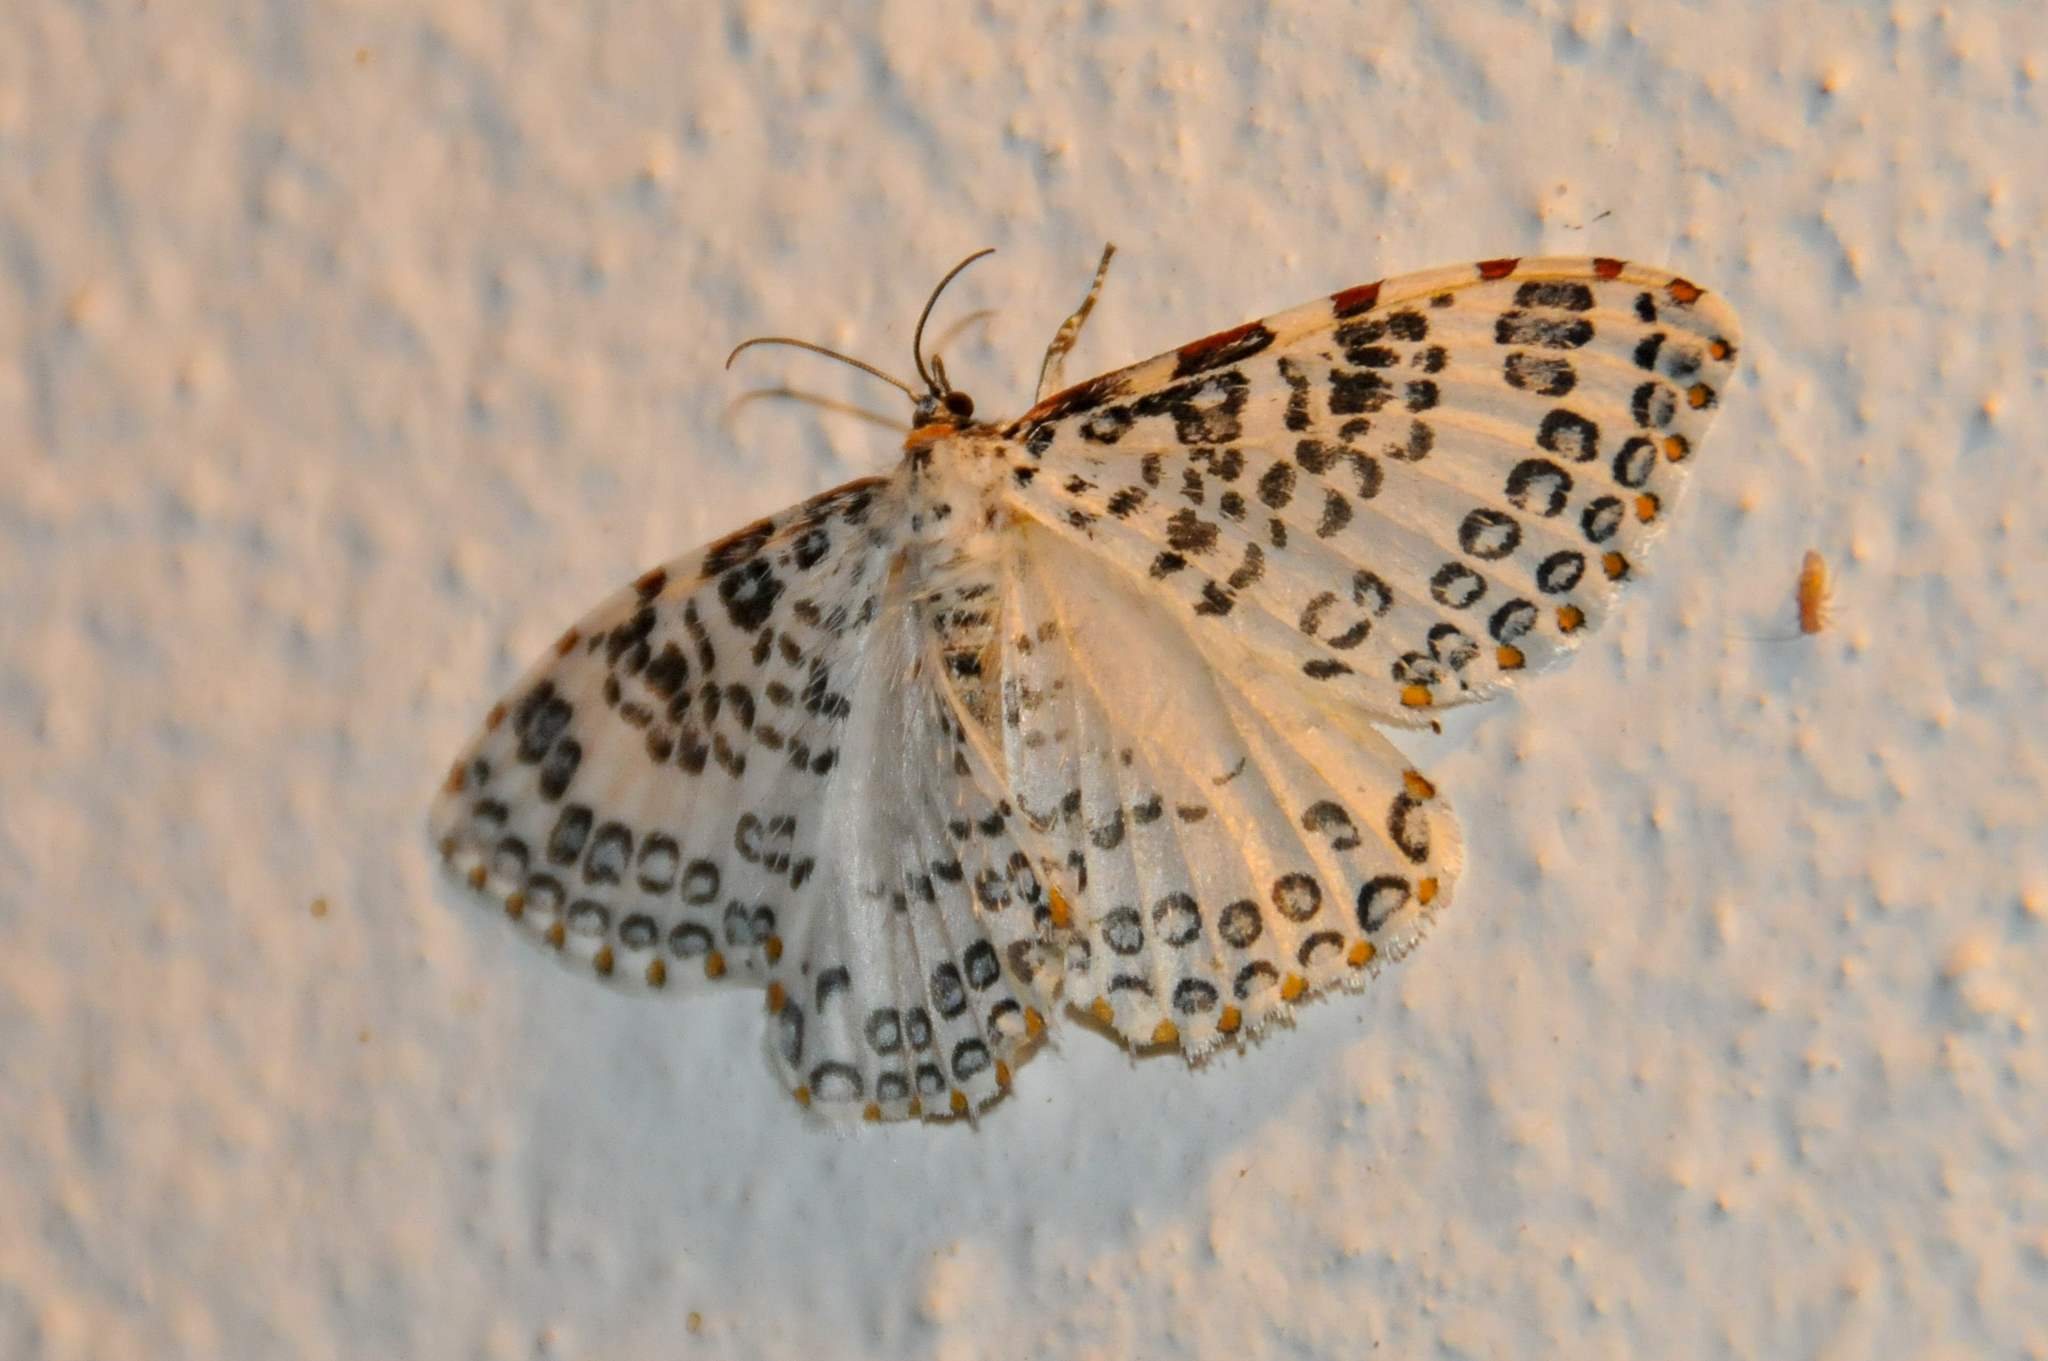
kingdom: Animalia
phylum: Arthropoda
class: Insecta
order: Lepidoptera
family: Callidulidae
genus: Caloschemia
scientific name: Caloschemia monolifera
